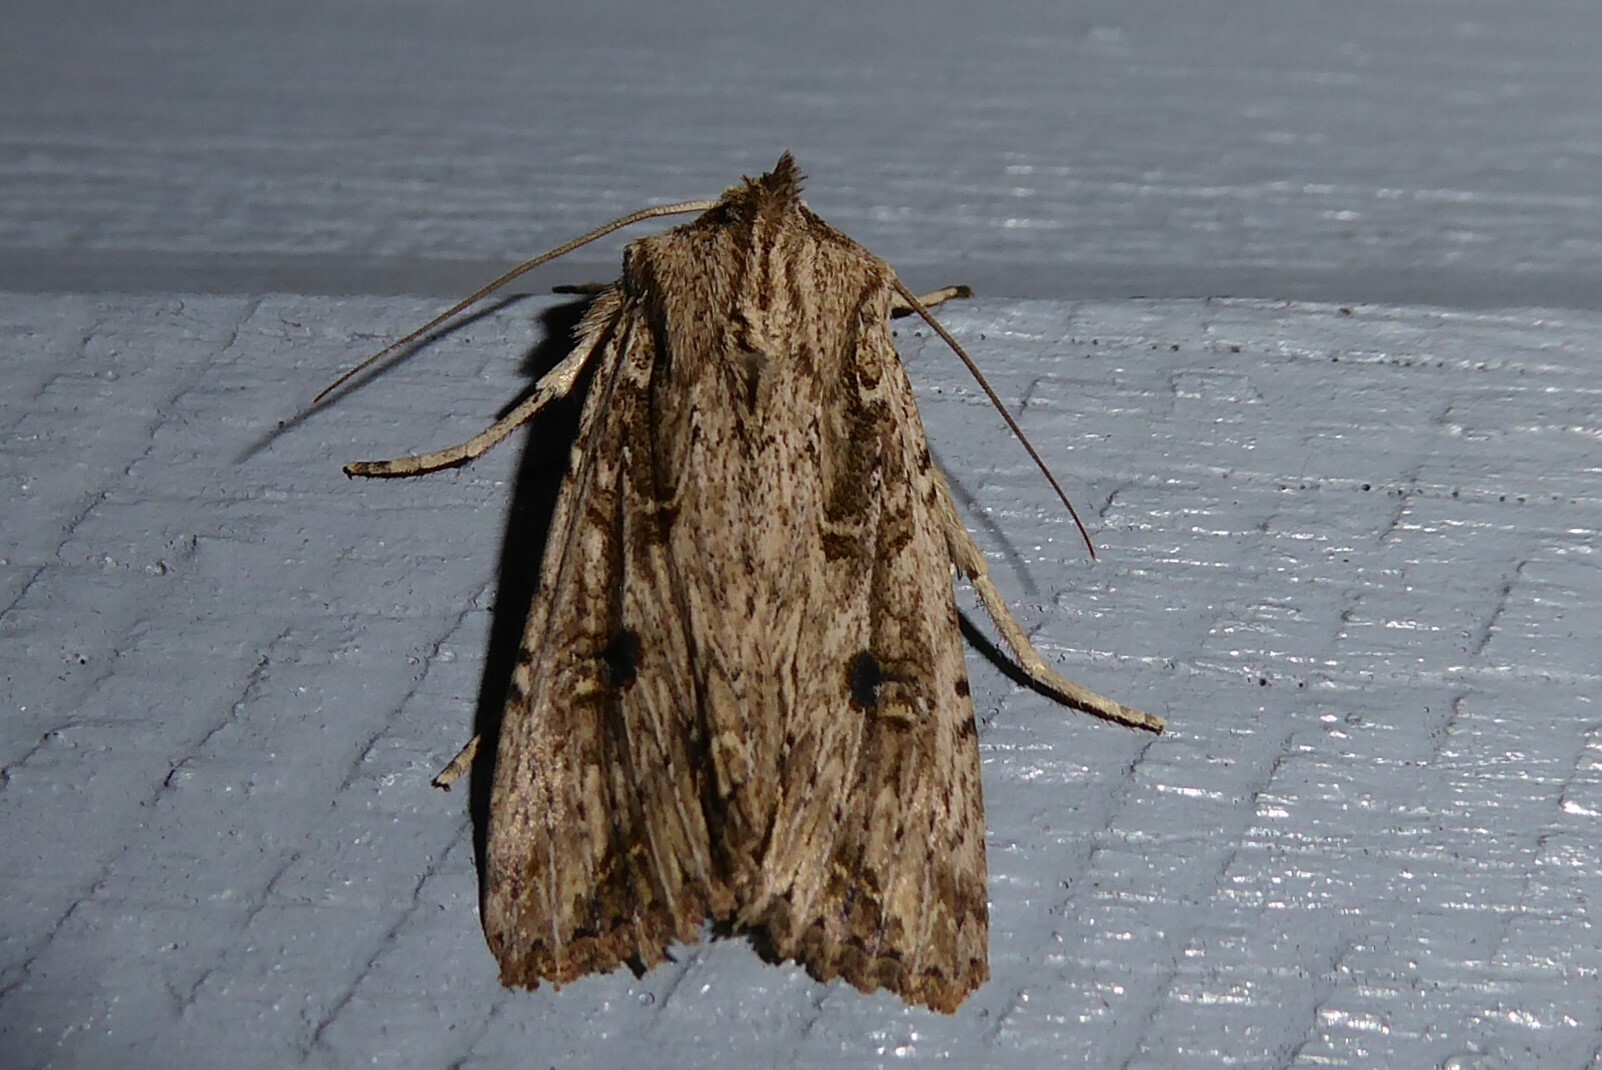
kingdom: Animalia
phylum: Arthropoda
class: Insecta
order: Lepidoptera
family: Noctuidae
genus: Ichneutica
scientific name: Ichneutica lignana
